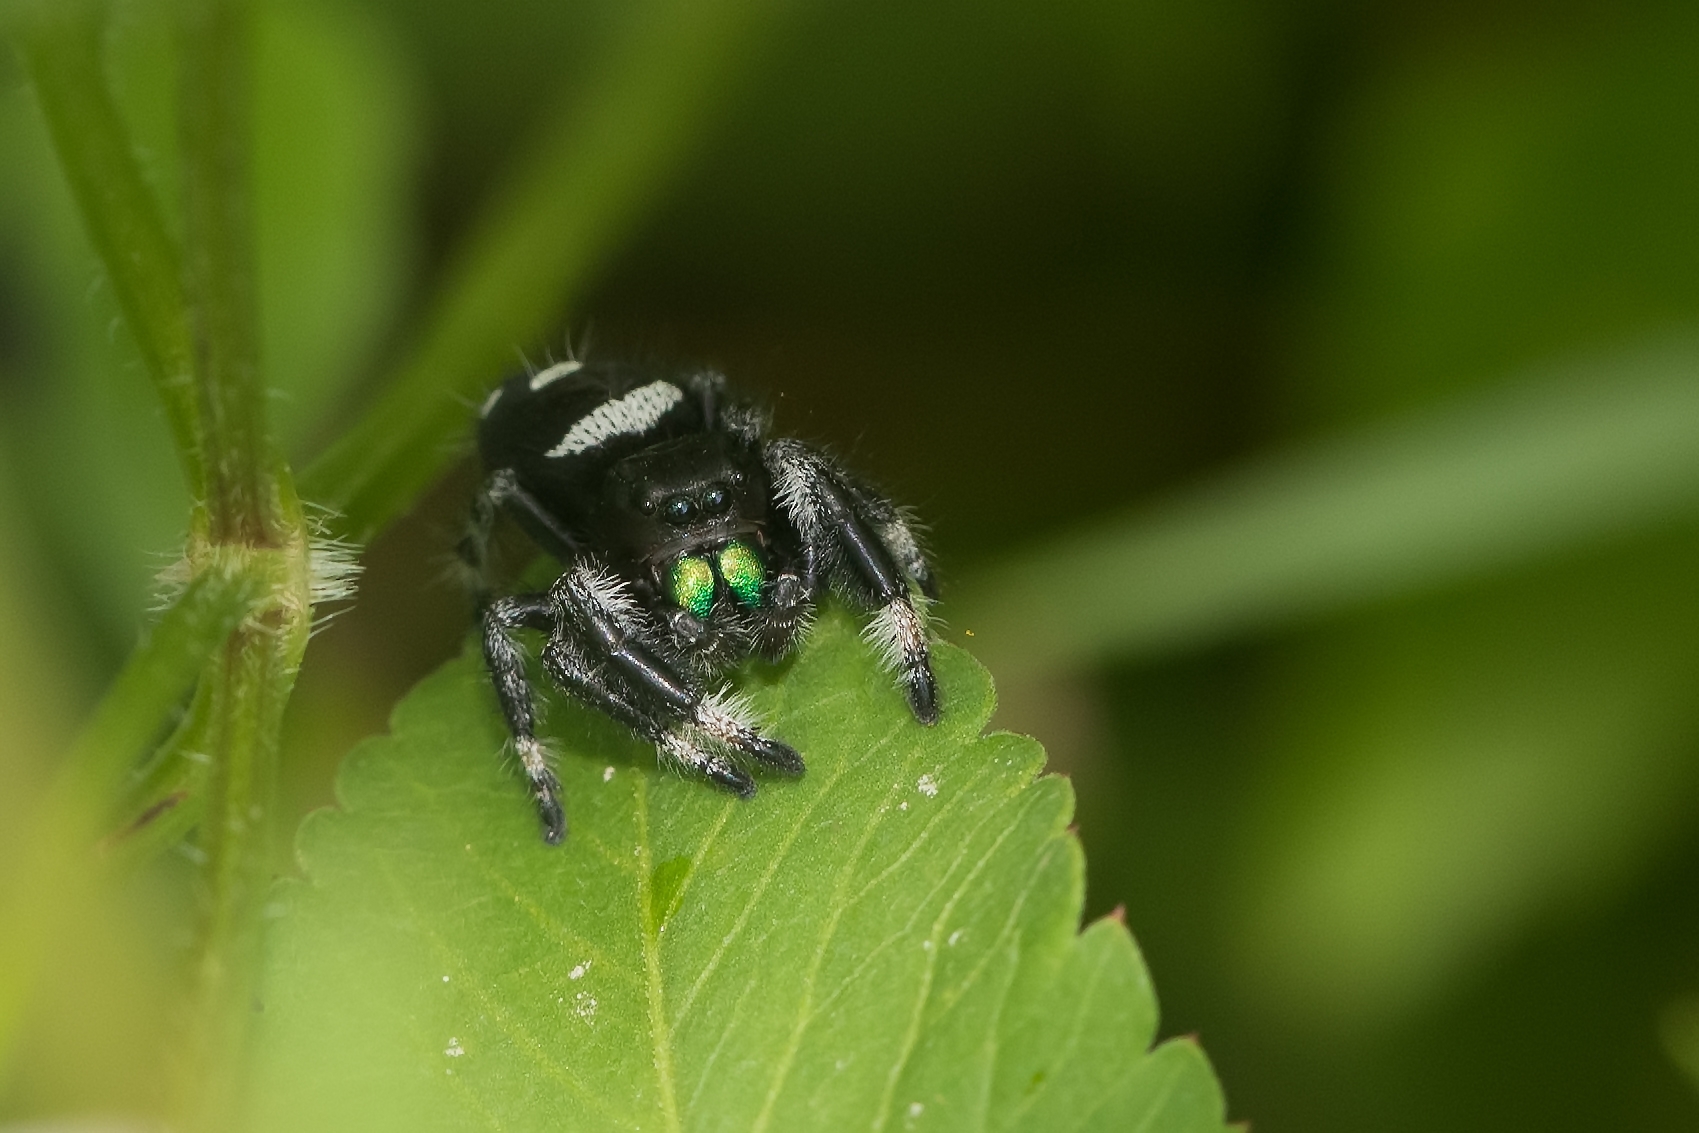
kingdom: Animalia
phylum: Arthropoda
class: Arachnida
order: Araneae
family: Salticidae
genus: Phidippus
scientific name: Phidippus regius
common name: Regal jumper
